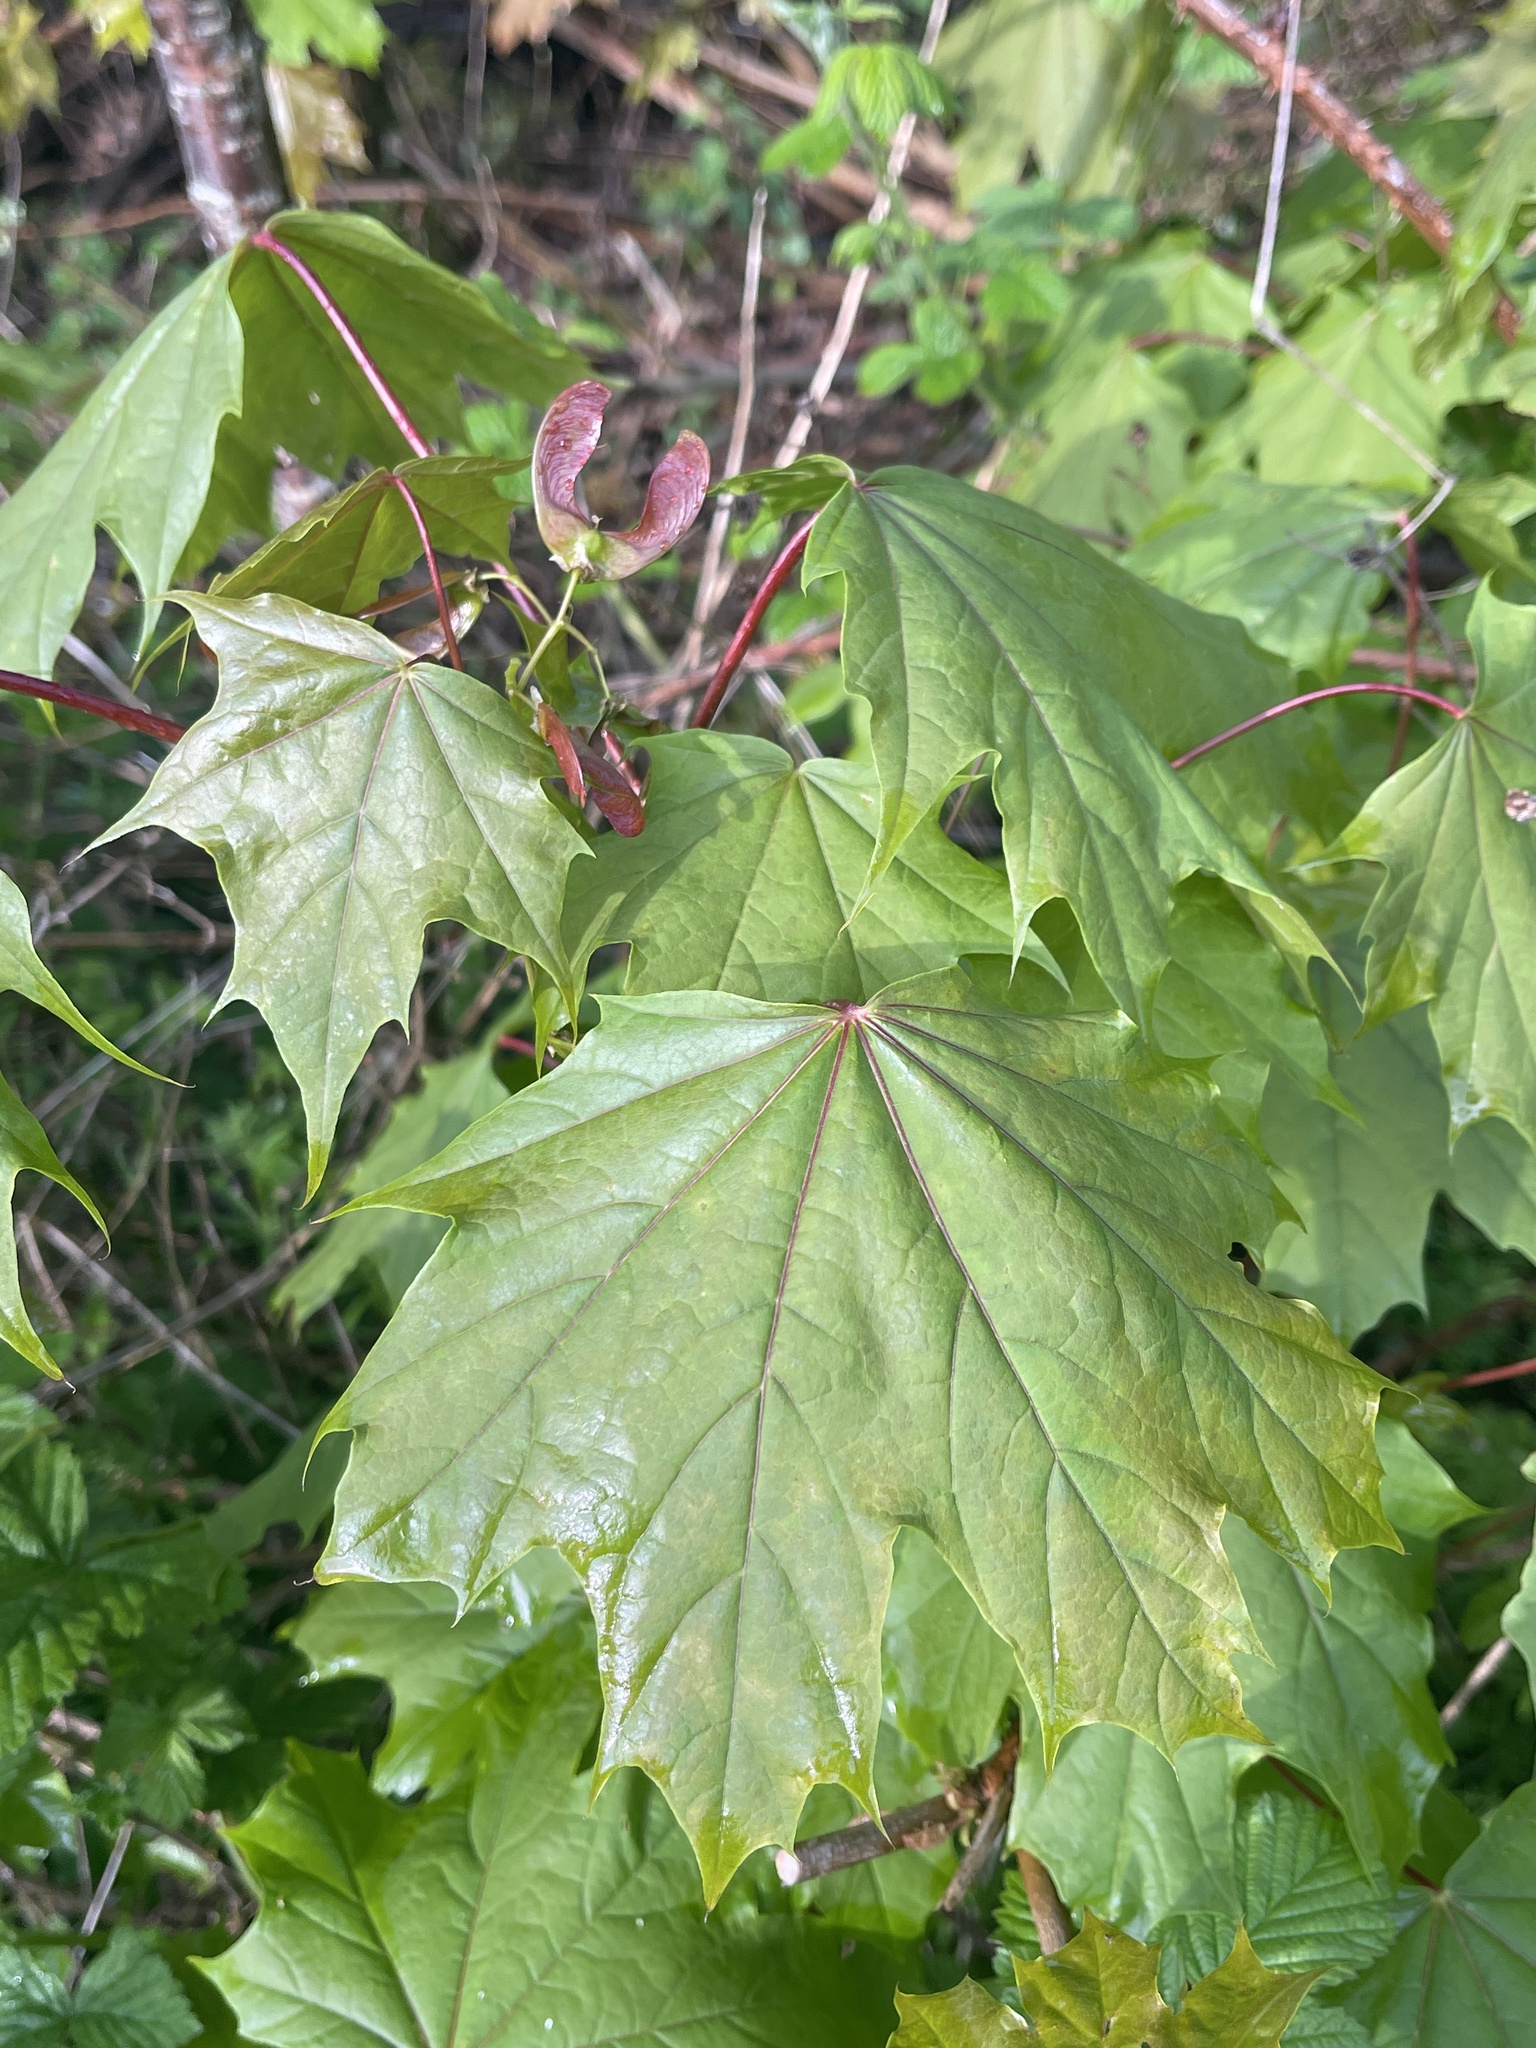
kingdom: Plantae
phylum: Tracheophyta
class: Magnoliopsida
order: Sapindales
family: Sapindaceae
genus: Acer
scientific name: Acer platanoides
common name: Norway maple
